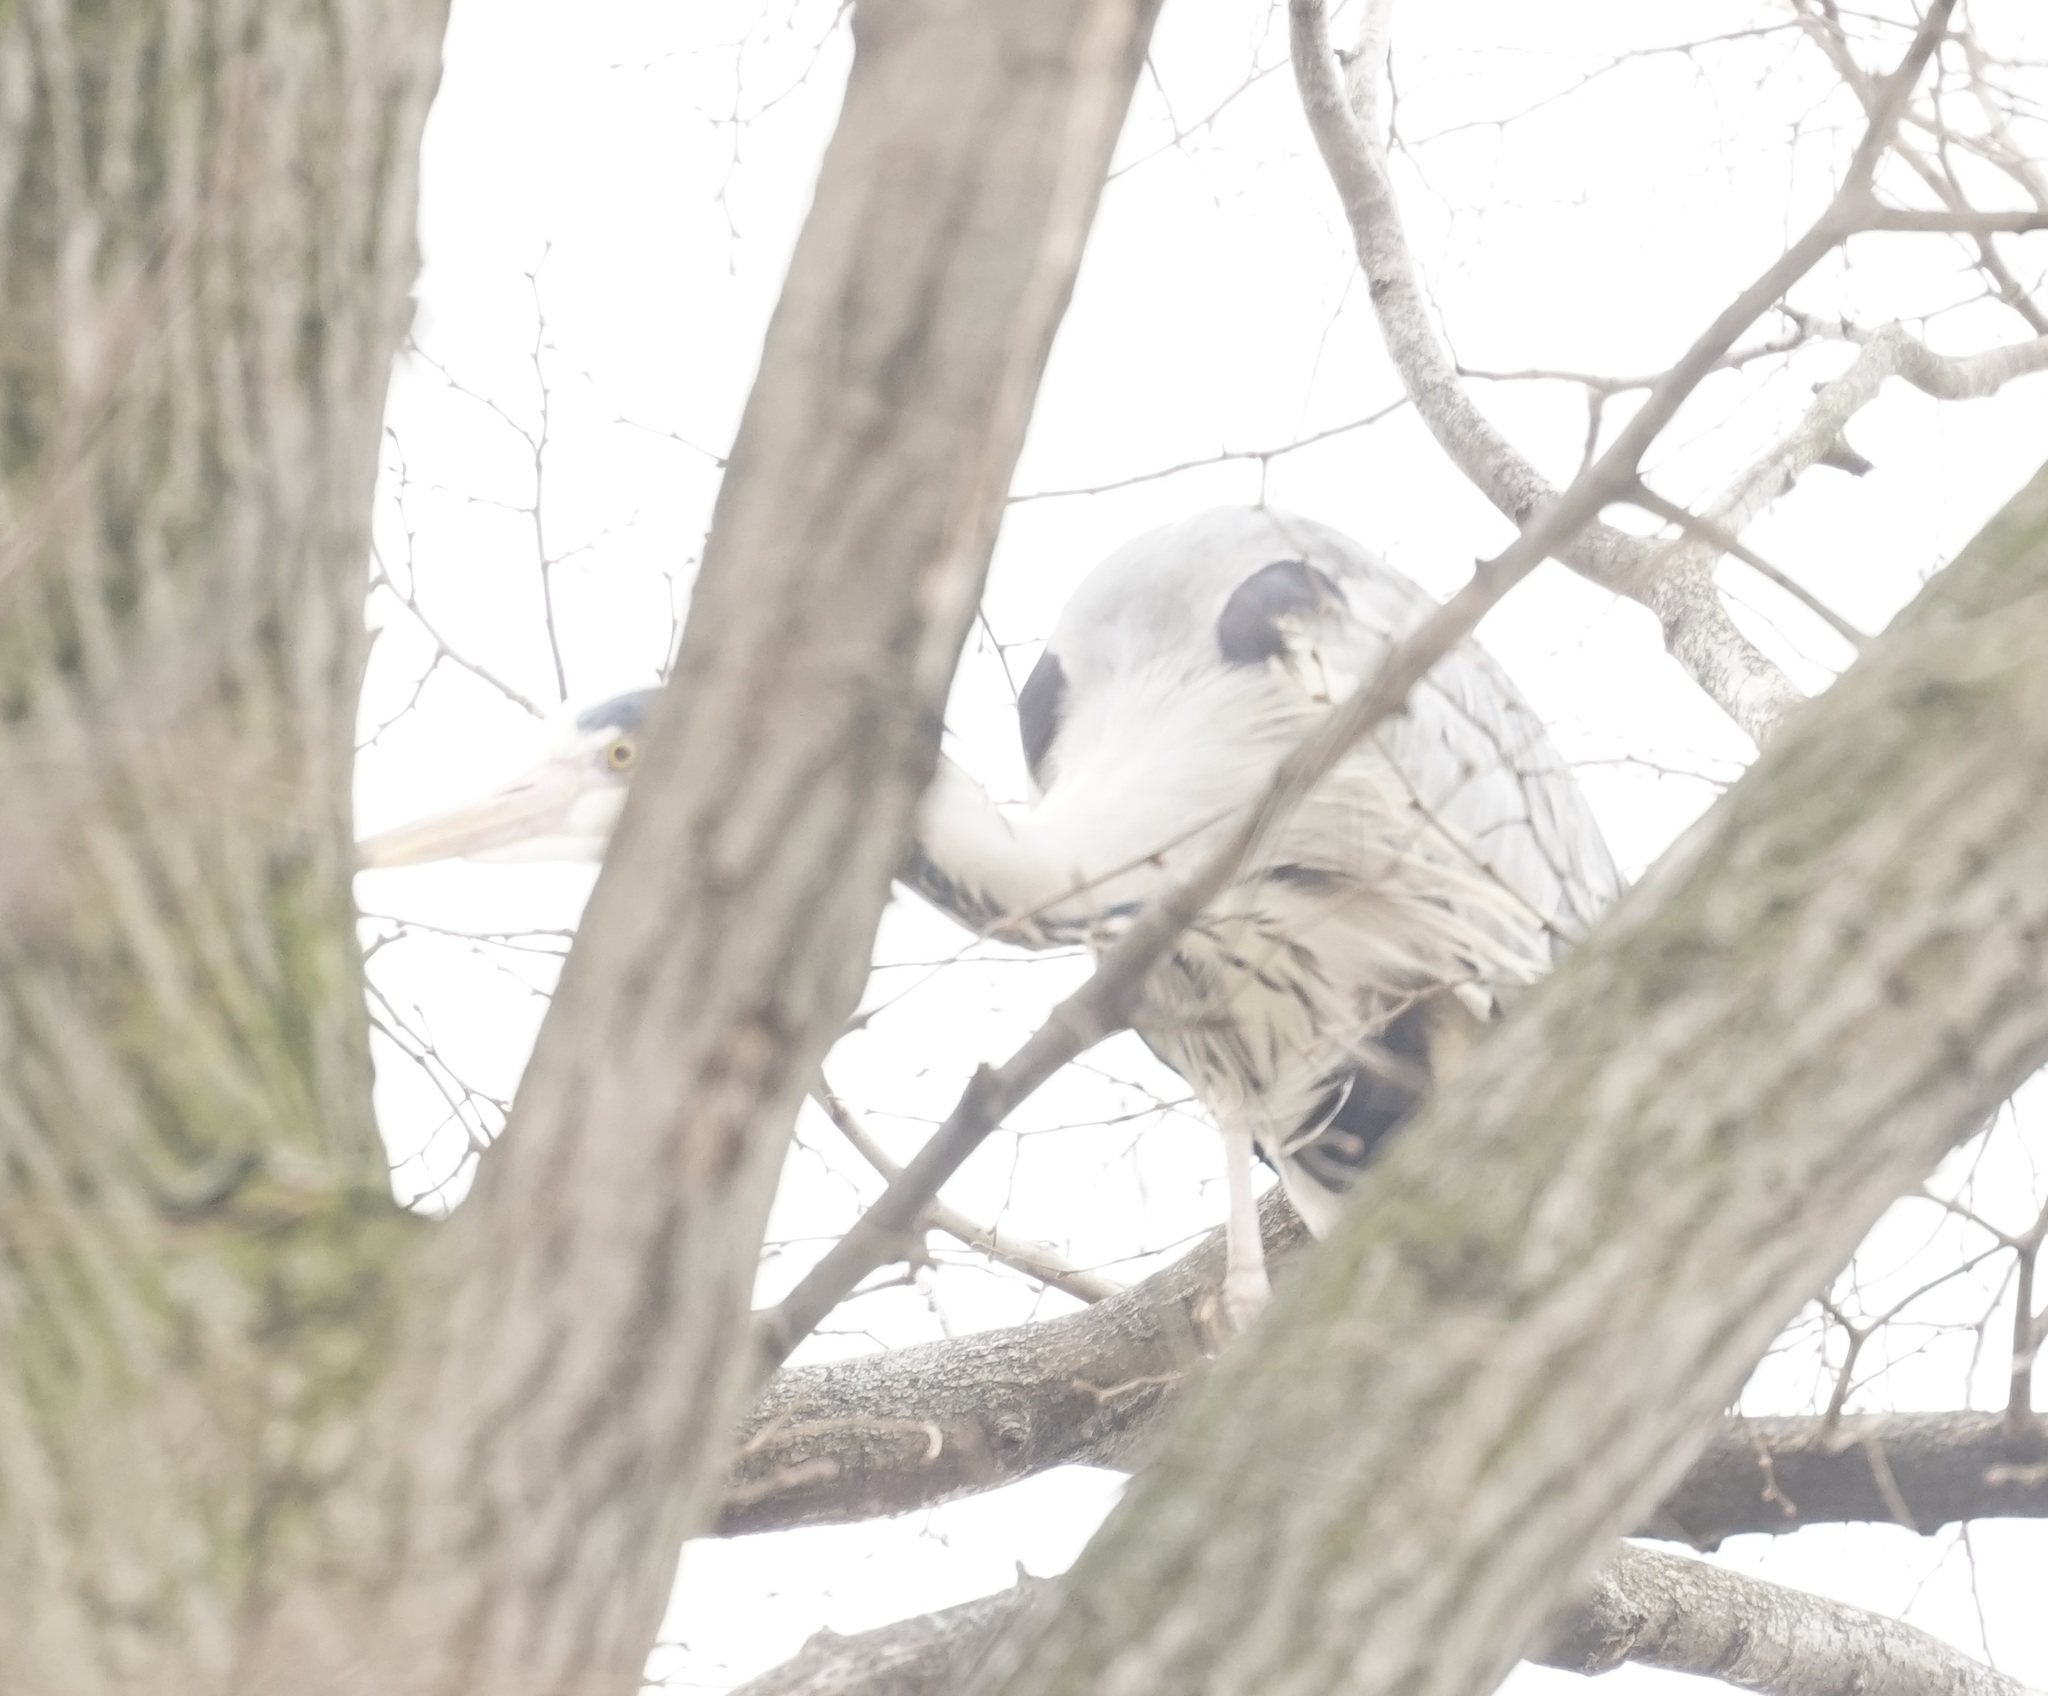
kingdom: Animalia
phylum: Chordata
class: Aves
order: Pelecaniformes
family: Ardeidae
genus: Ardea
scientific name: Ardea cinerea
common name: Grey heron
